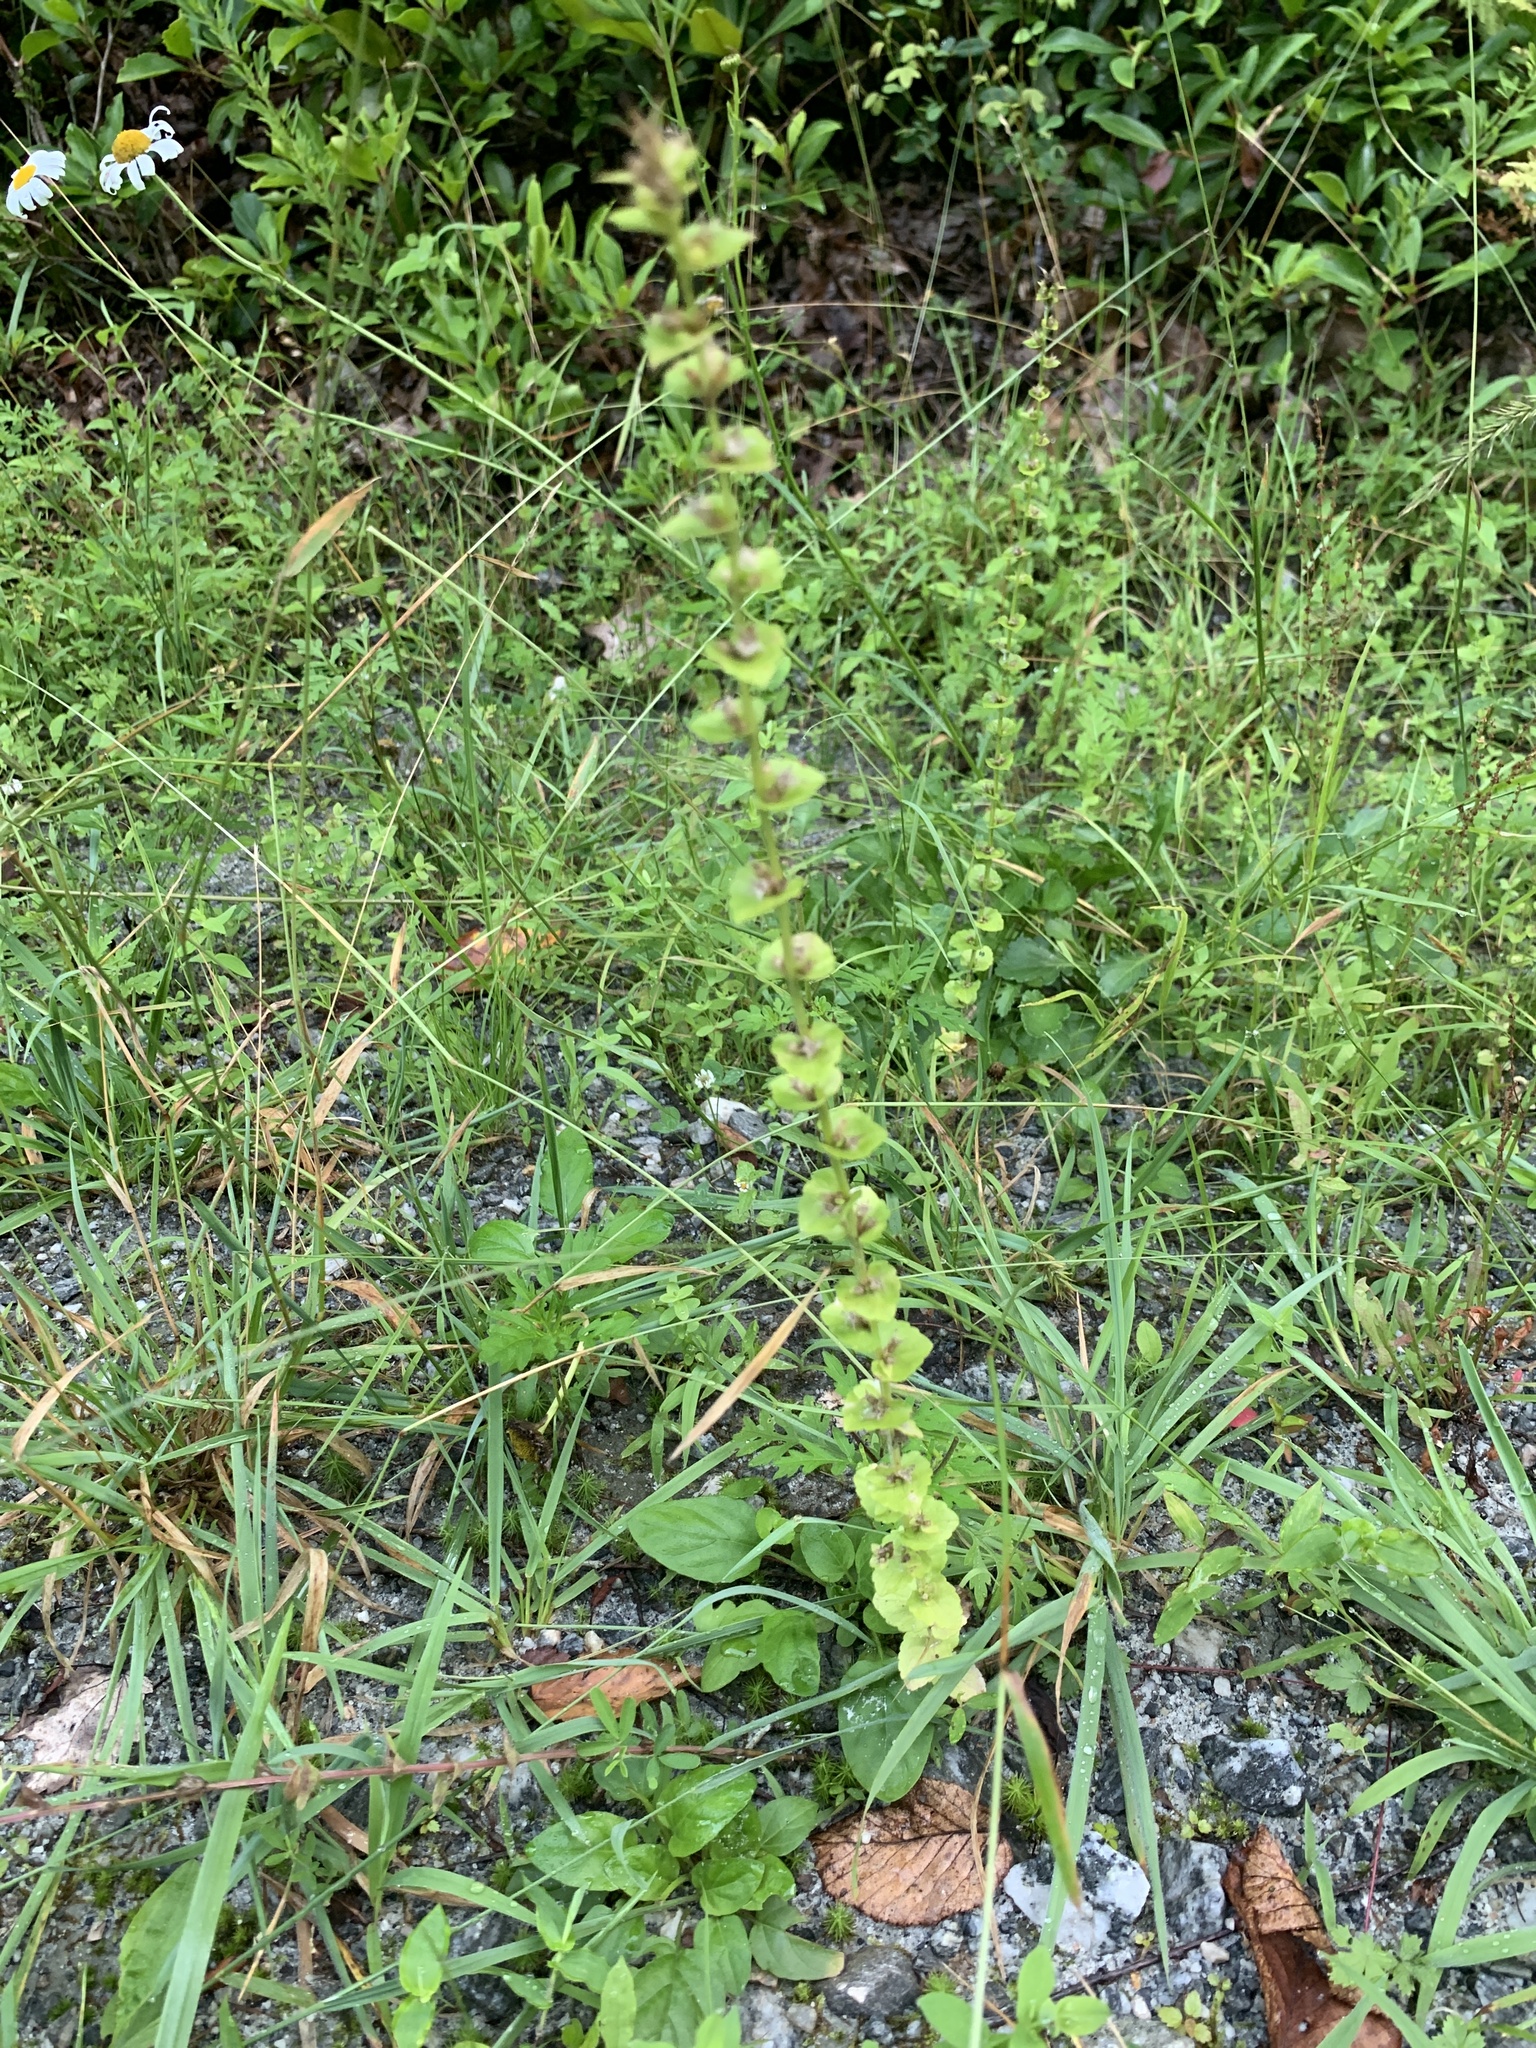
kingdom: Plantae
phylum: Tracheophyta
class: Magnoliopsida
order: Asterales
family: Campanulaceae
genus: Triodanis
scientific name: Triodanis perfoliata
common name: Clasping venus' looking-glass
